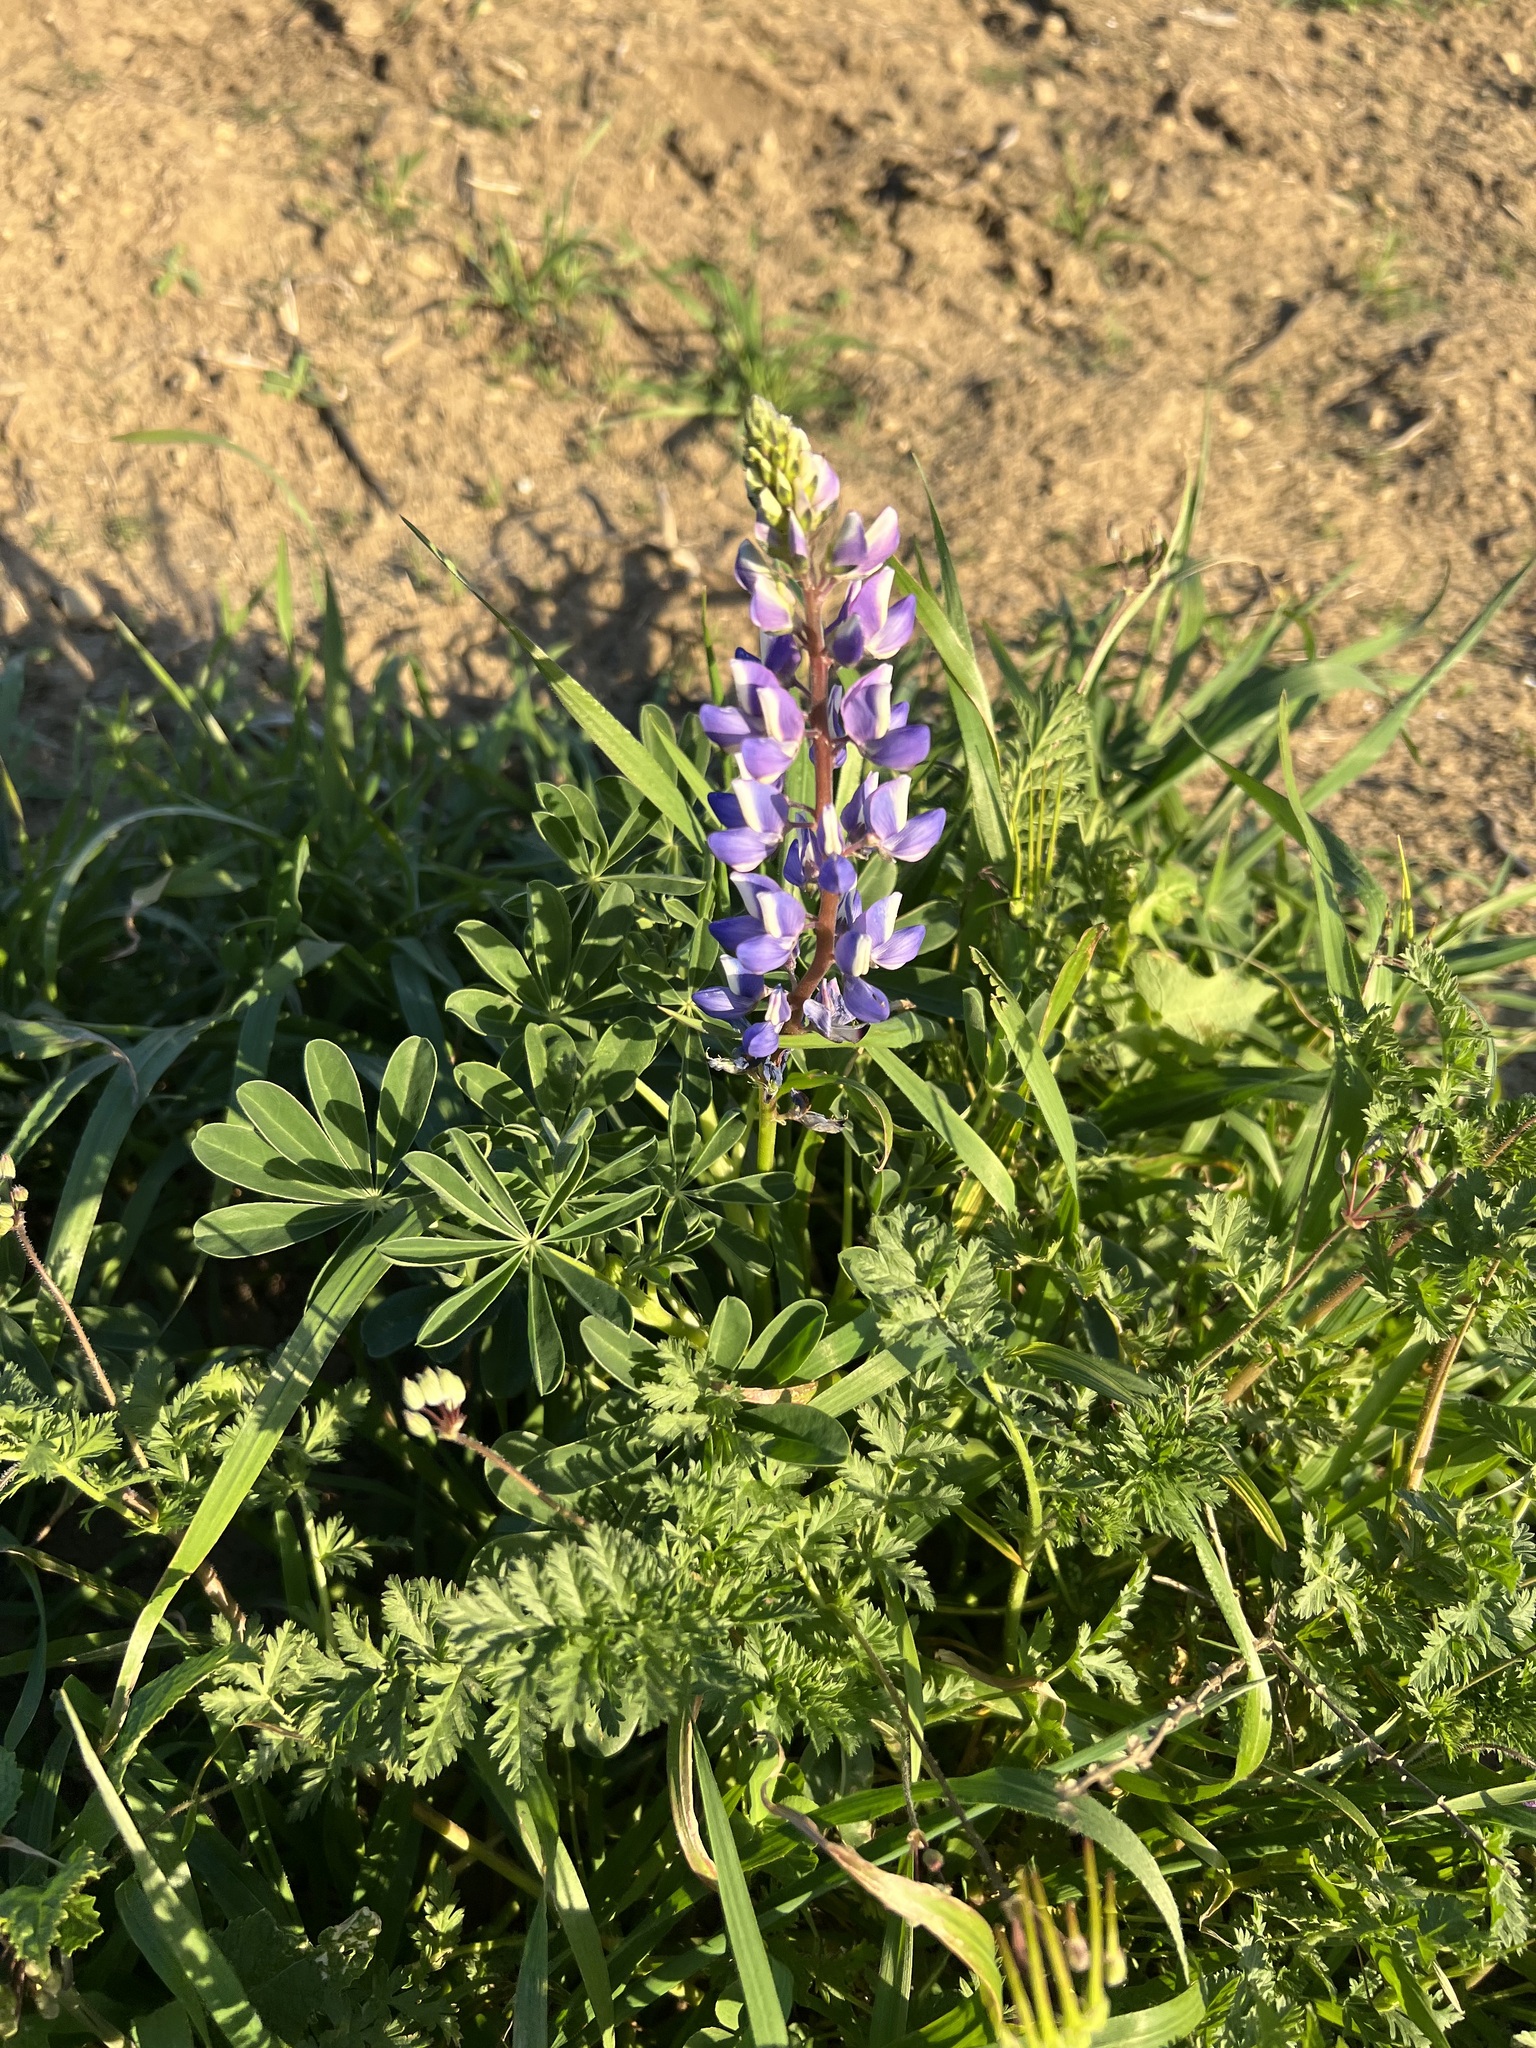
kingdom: Plantae
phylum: Tracheophyta
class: Magnoliopsida
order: Fabales
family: Fabaceae
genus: Lupinus
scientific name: Lupinus succulentus
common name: Arroyo lupine
